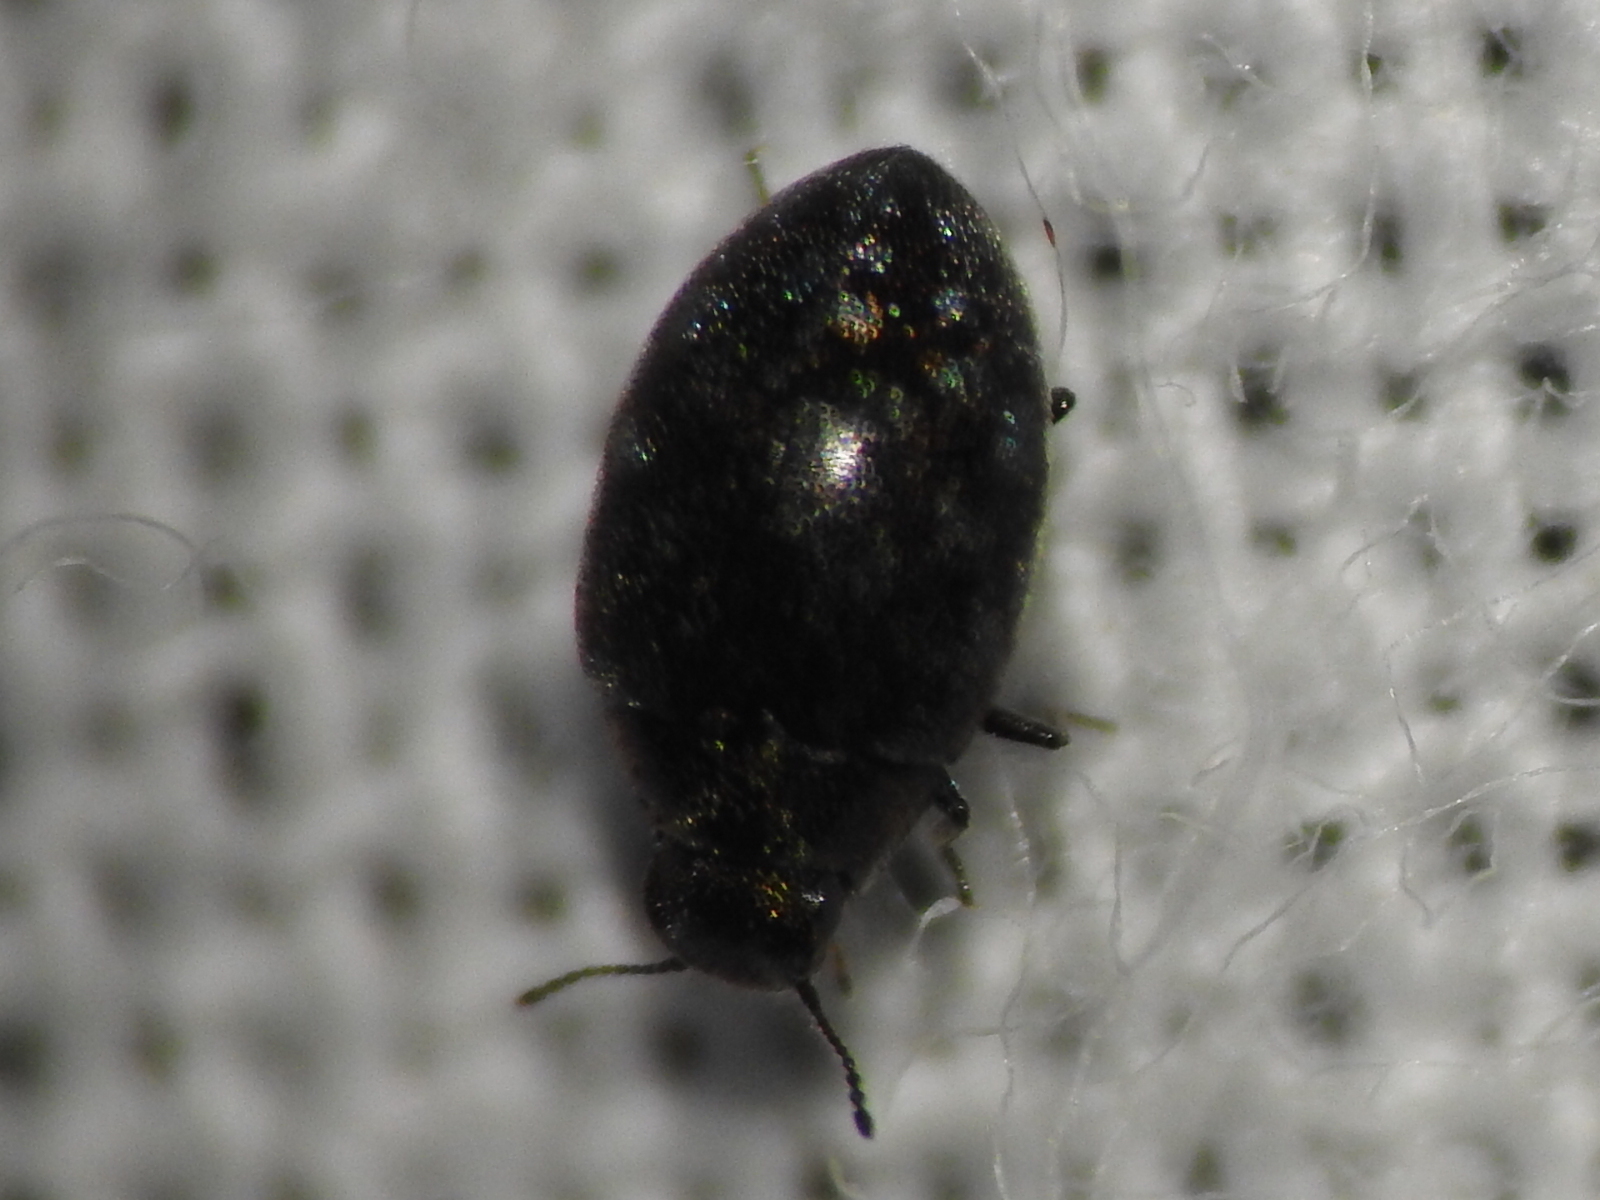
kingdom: Animalia
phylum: Arthropoda
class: Insecta
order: Coleoptera
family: Limnichidae
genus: Eulimnichus
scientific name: Eulimnichus ater
